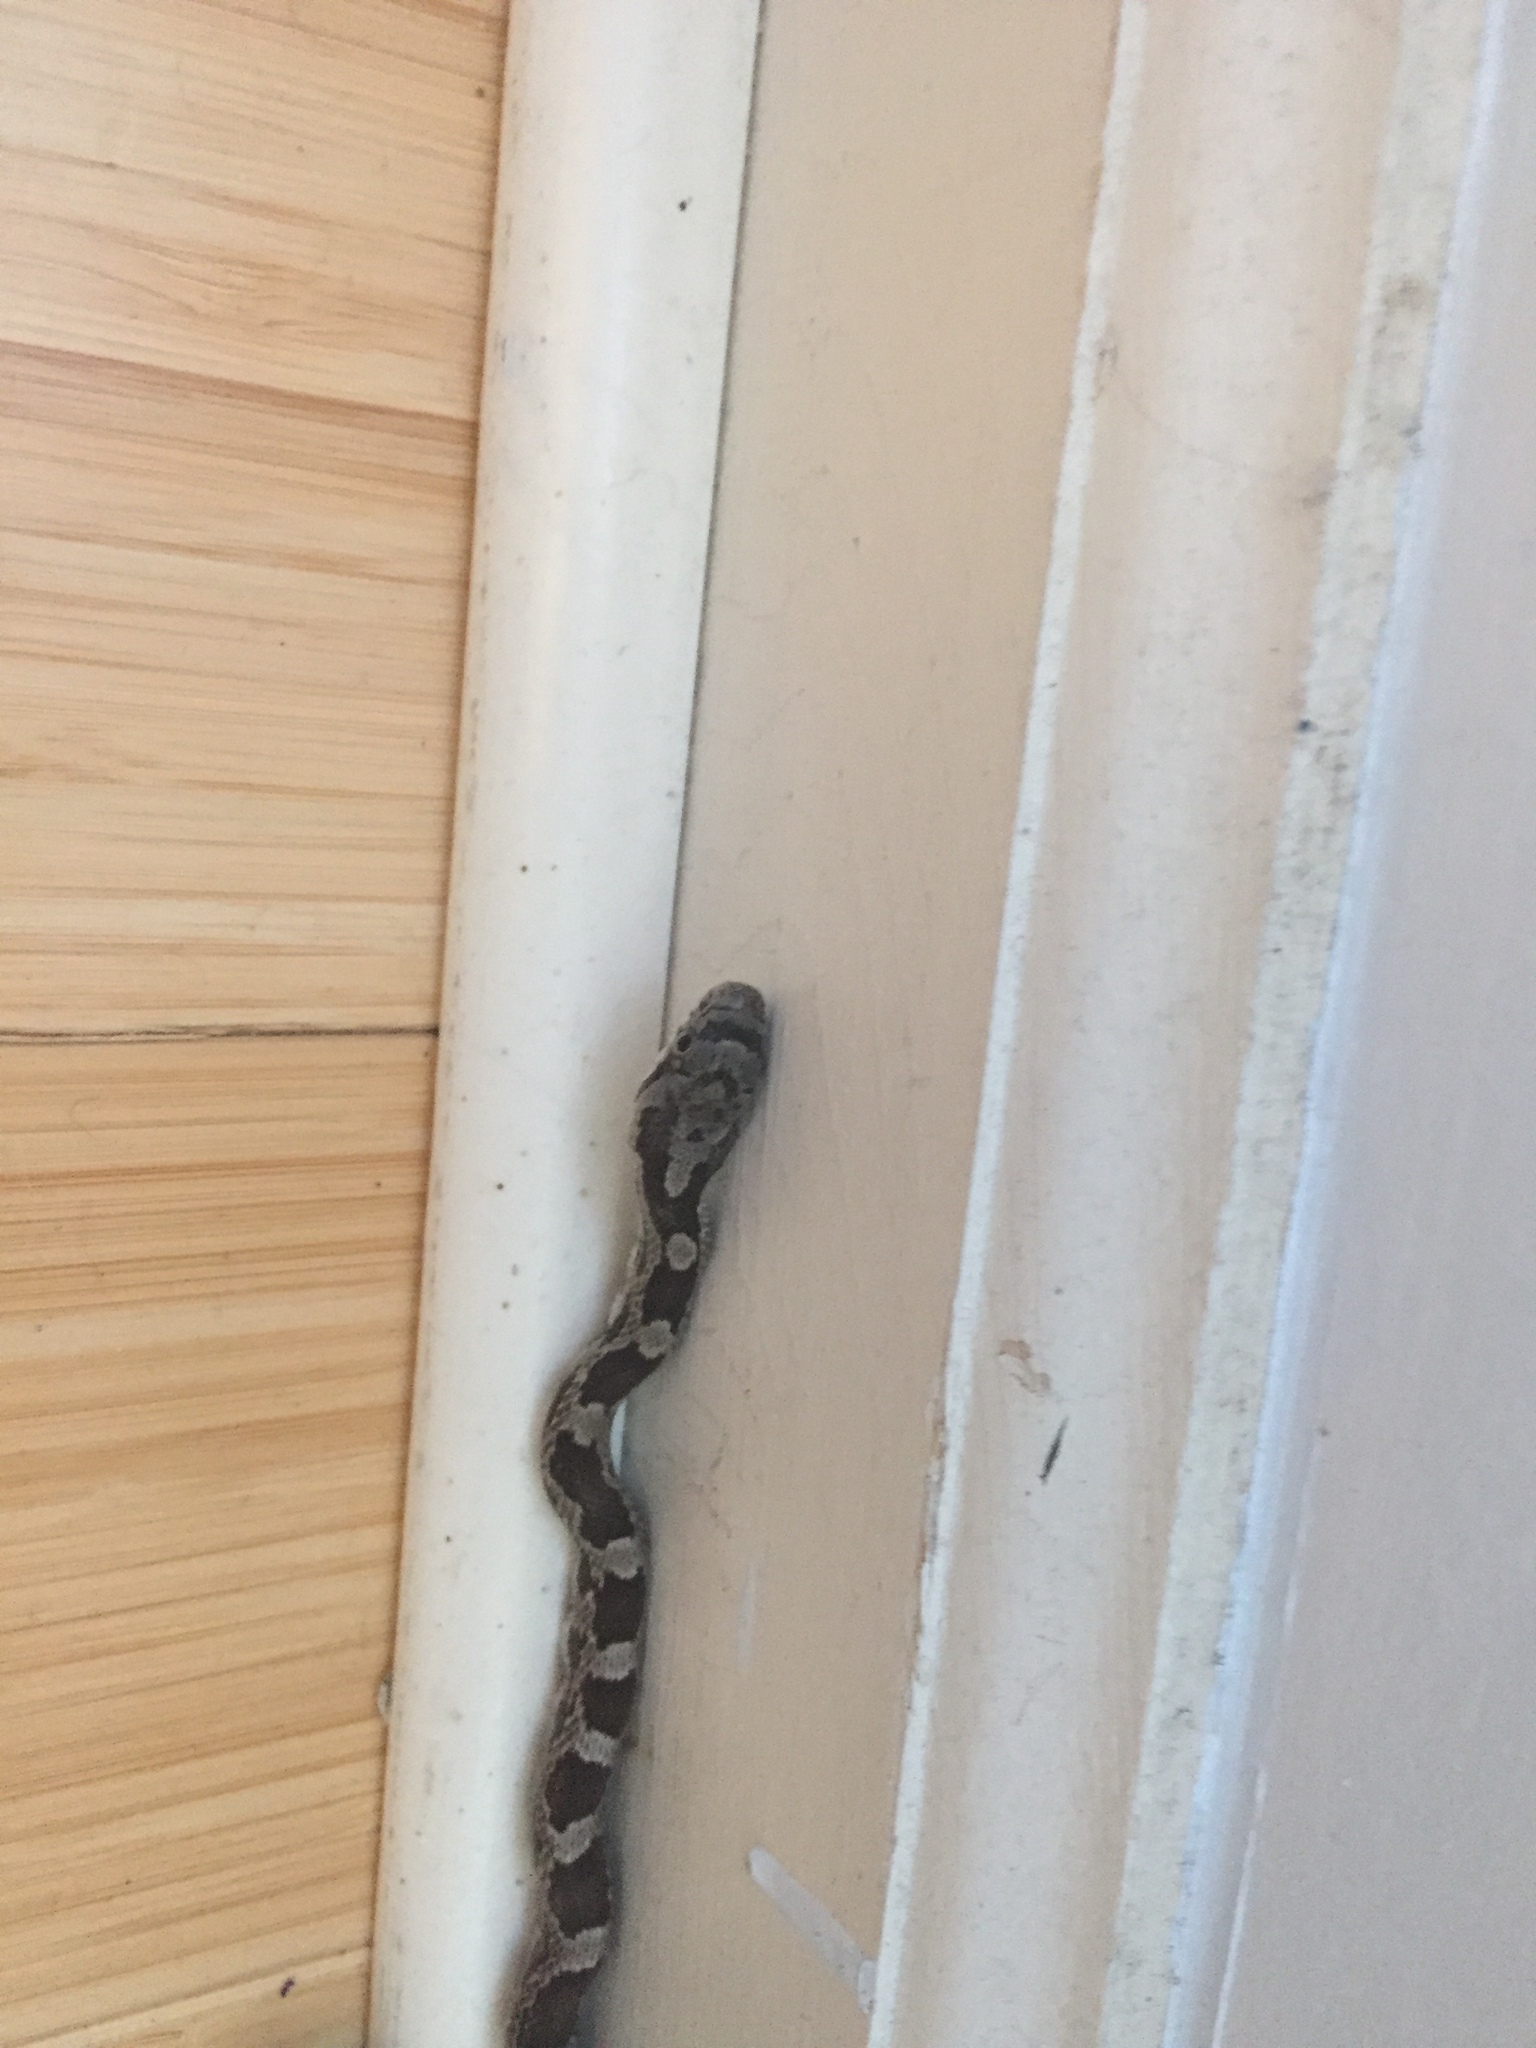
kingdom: Animalia
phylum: Chordata
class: Squamata
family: Colubridae
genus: Pantherophis
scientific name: Pantherophis spiloides
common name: Gray rat snake
